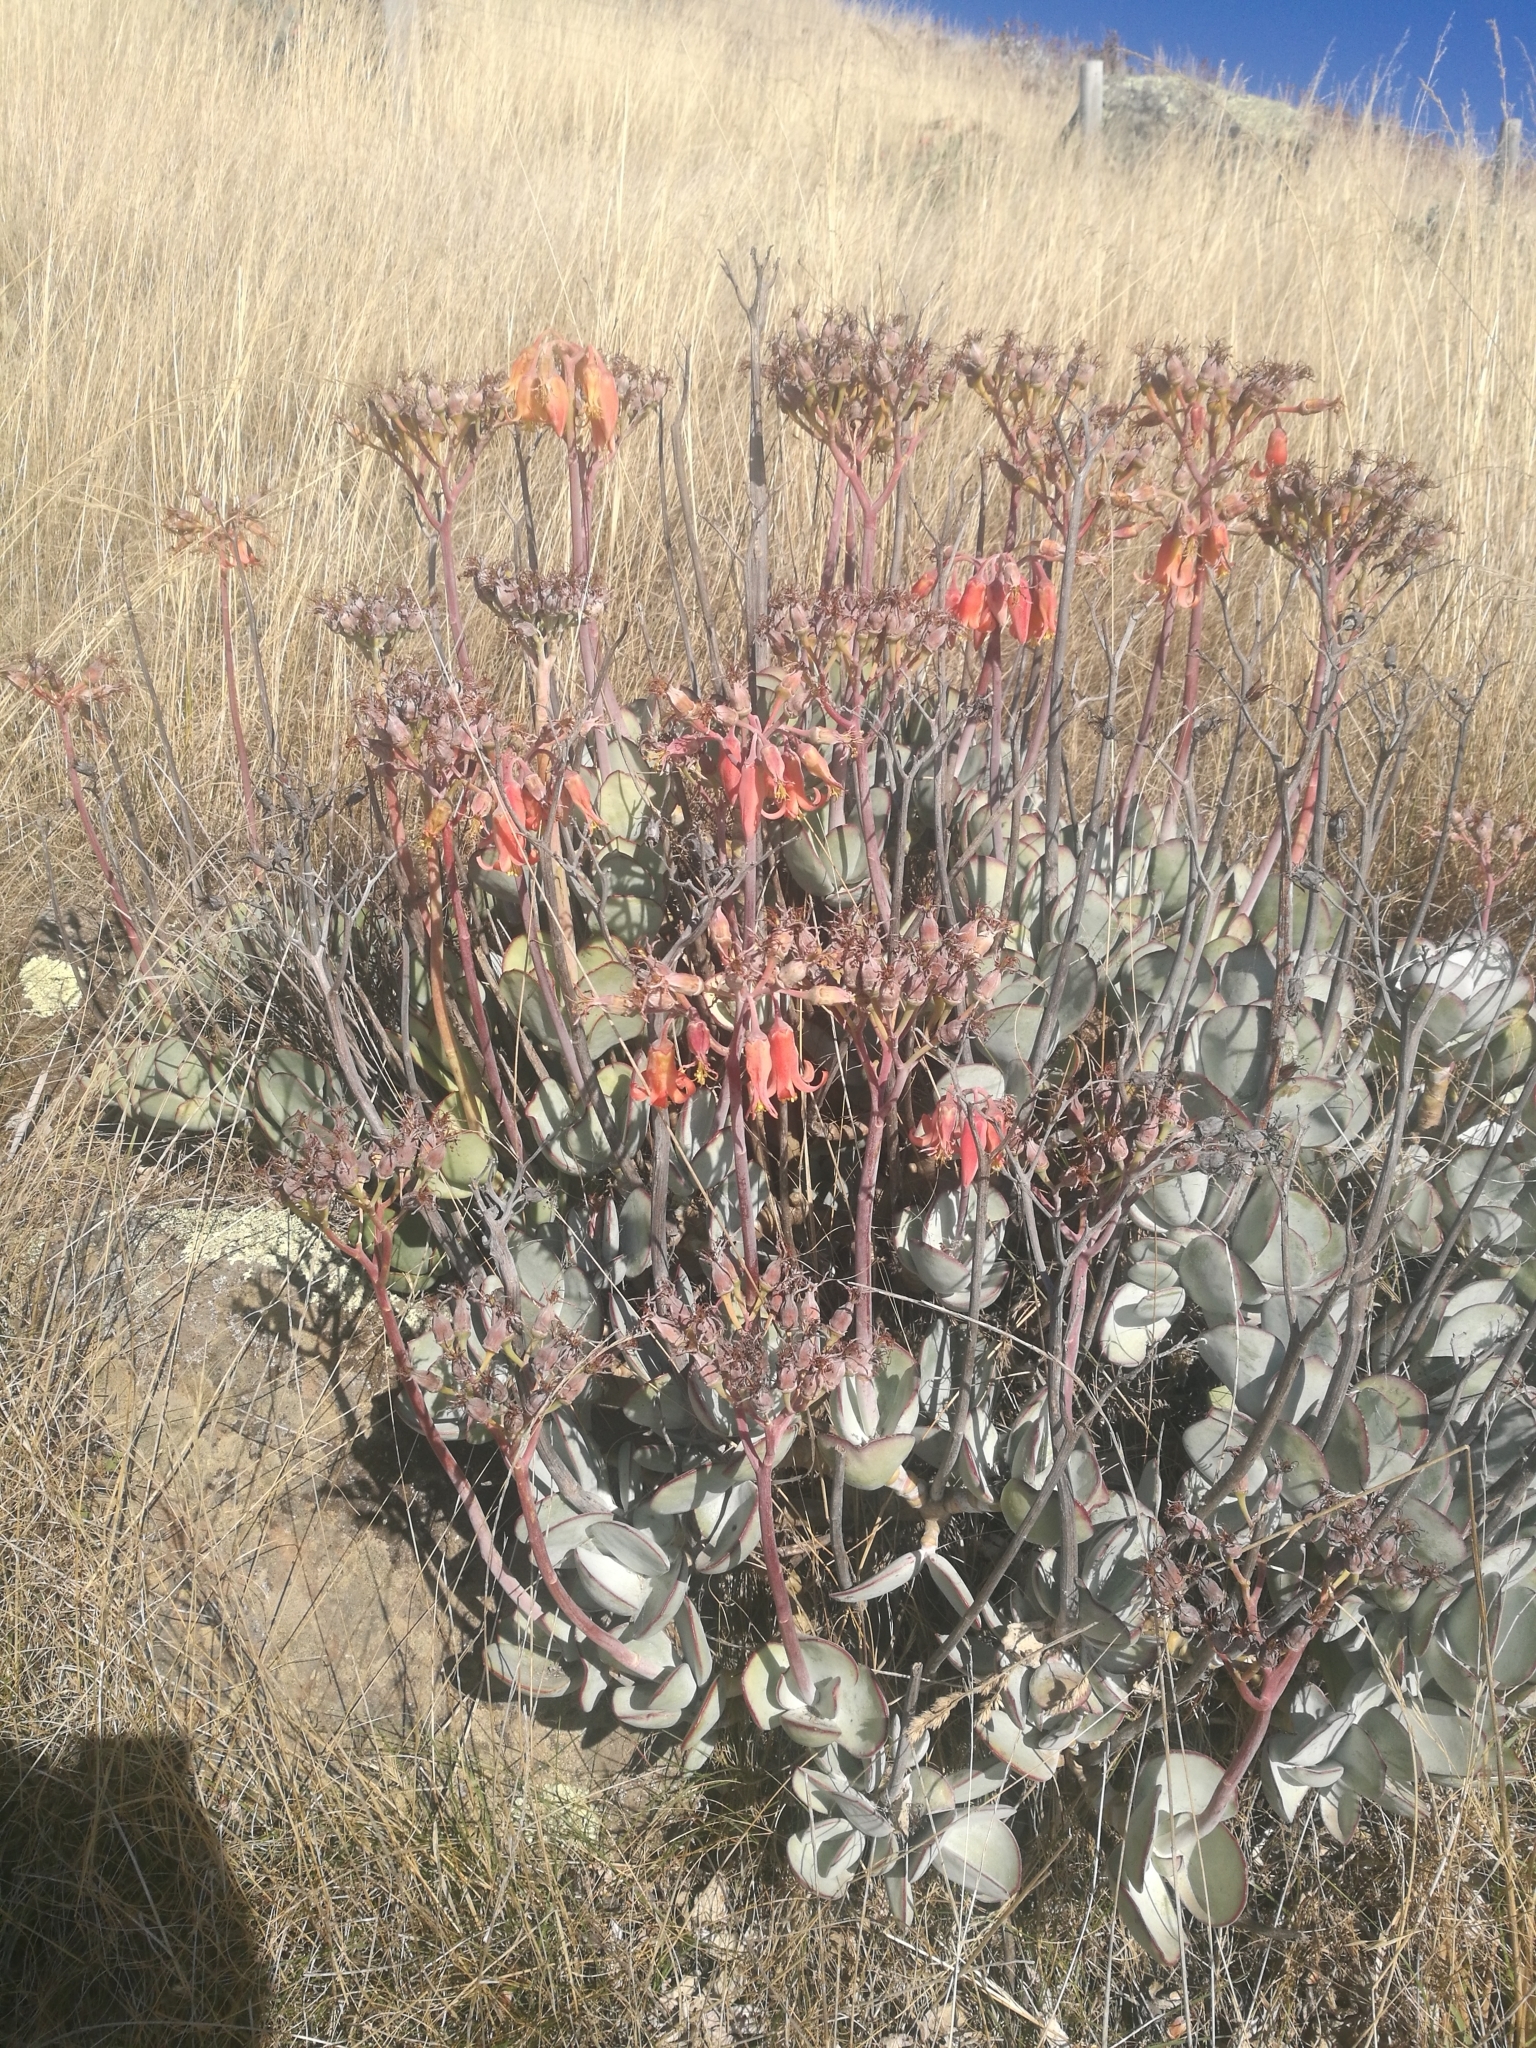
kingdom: Plantae
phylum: Tracheophyta
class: Magnoliopsida
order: Saxifragales
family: Crassulaceae
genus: Cotyledon
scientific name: Cotyledon orbiculata
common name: Pig's ear
